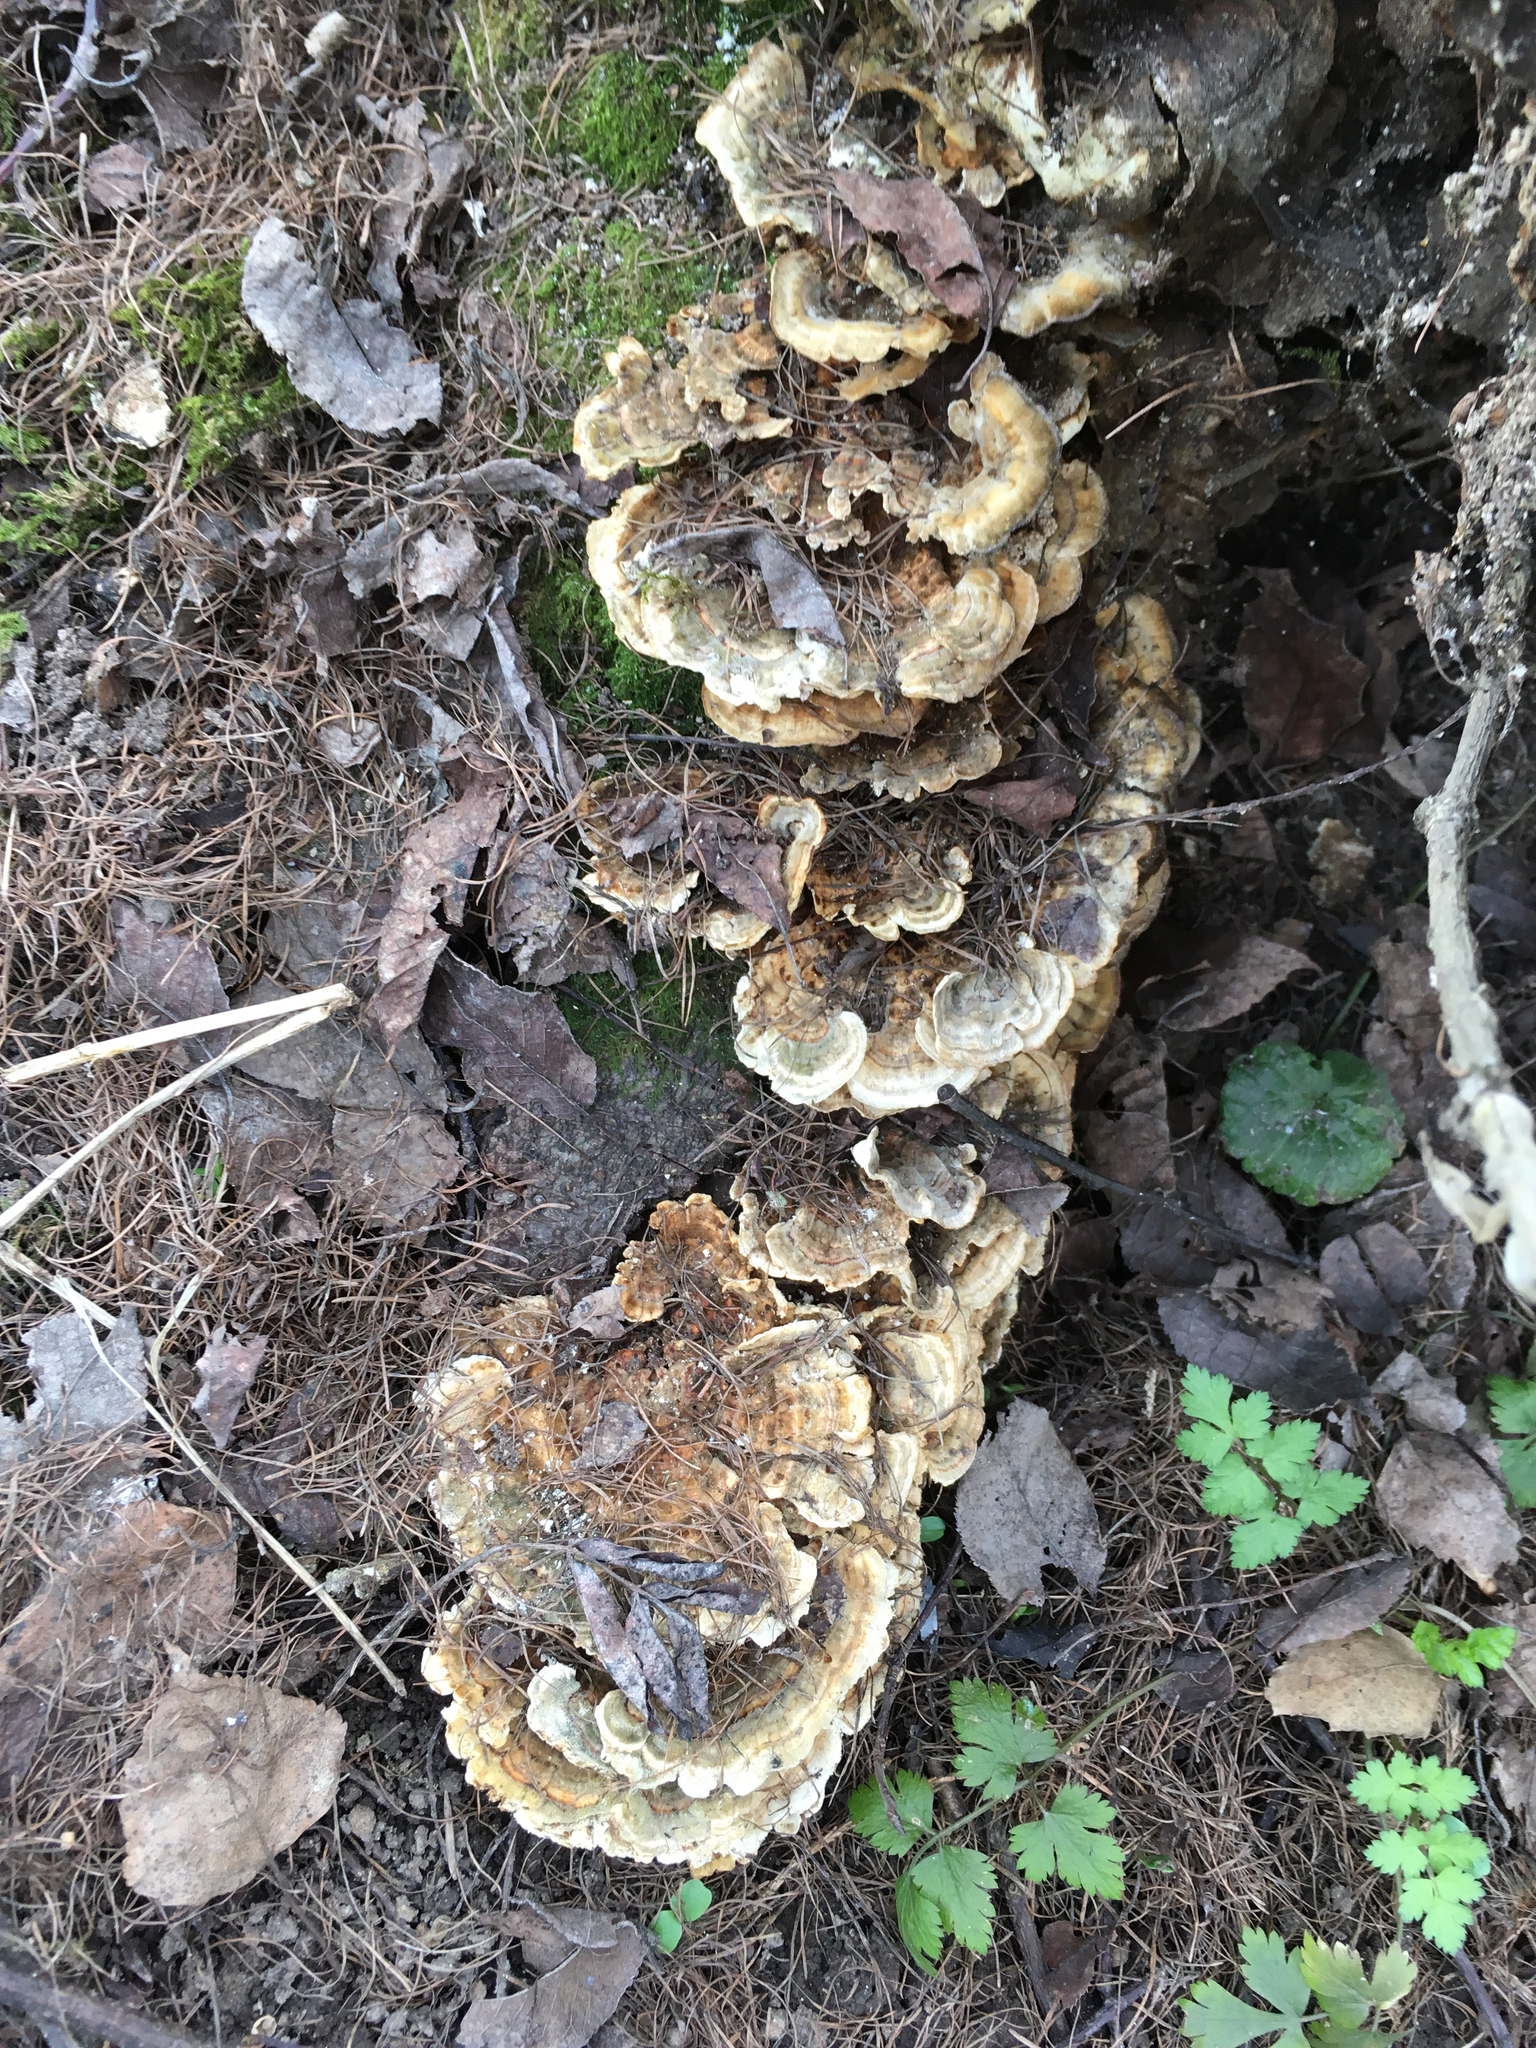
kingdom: Fungi
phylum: Basidiomycota
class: Agaricomycetes
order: Polyporales
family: Polyporaceae
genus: Trametes
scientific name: Trametes ochracea
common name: Ochre bracket
